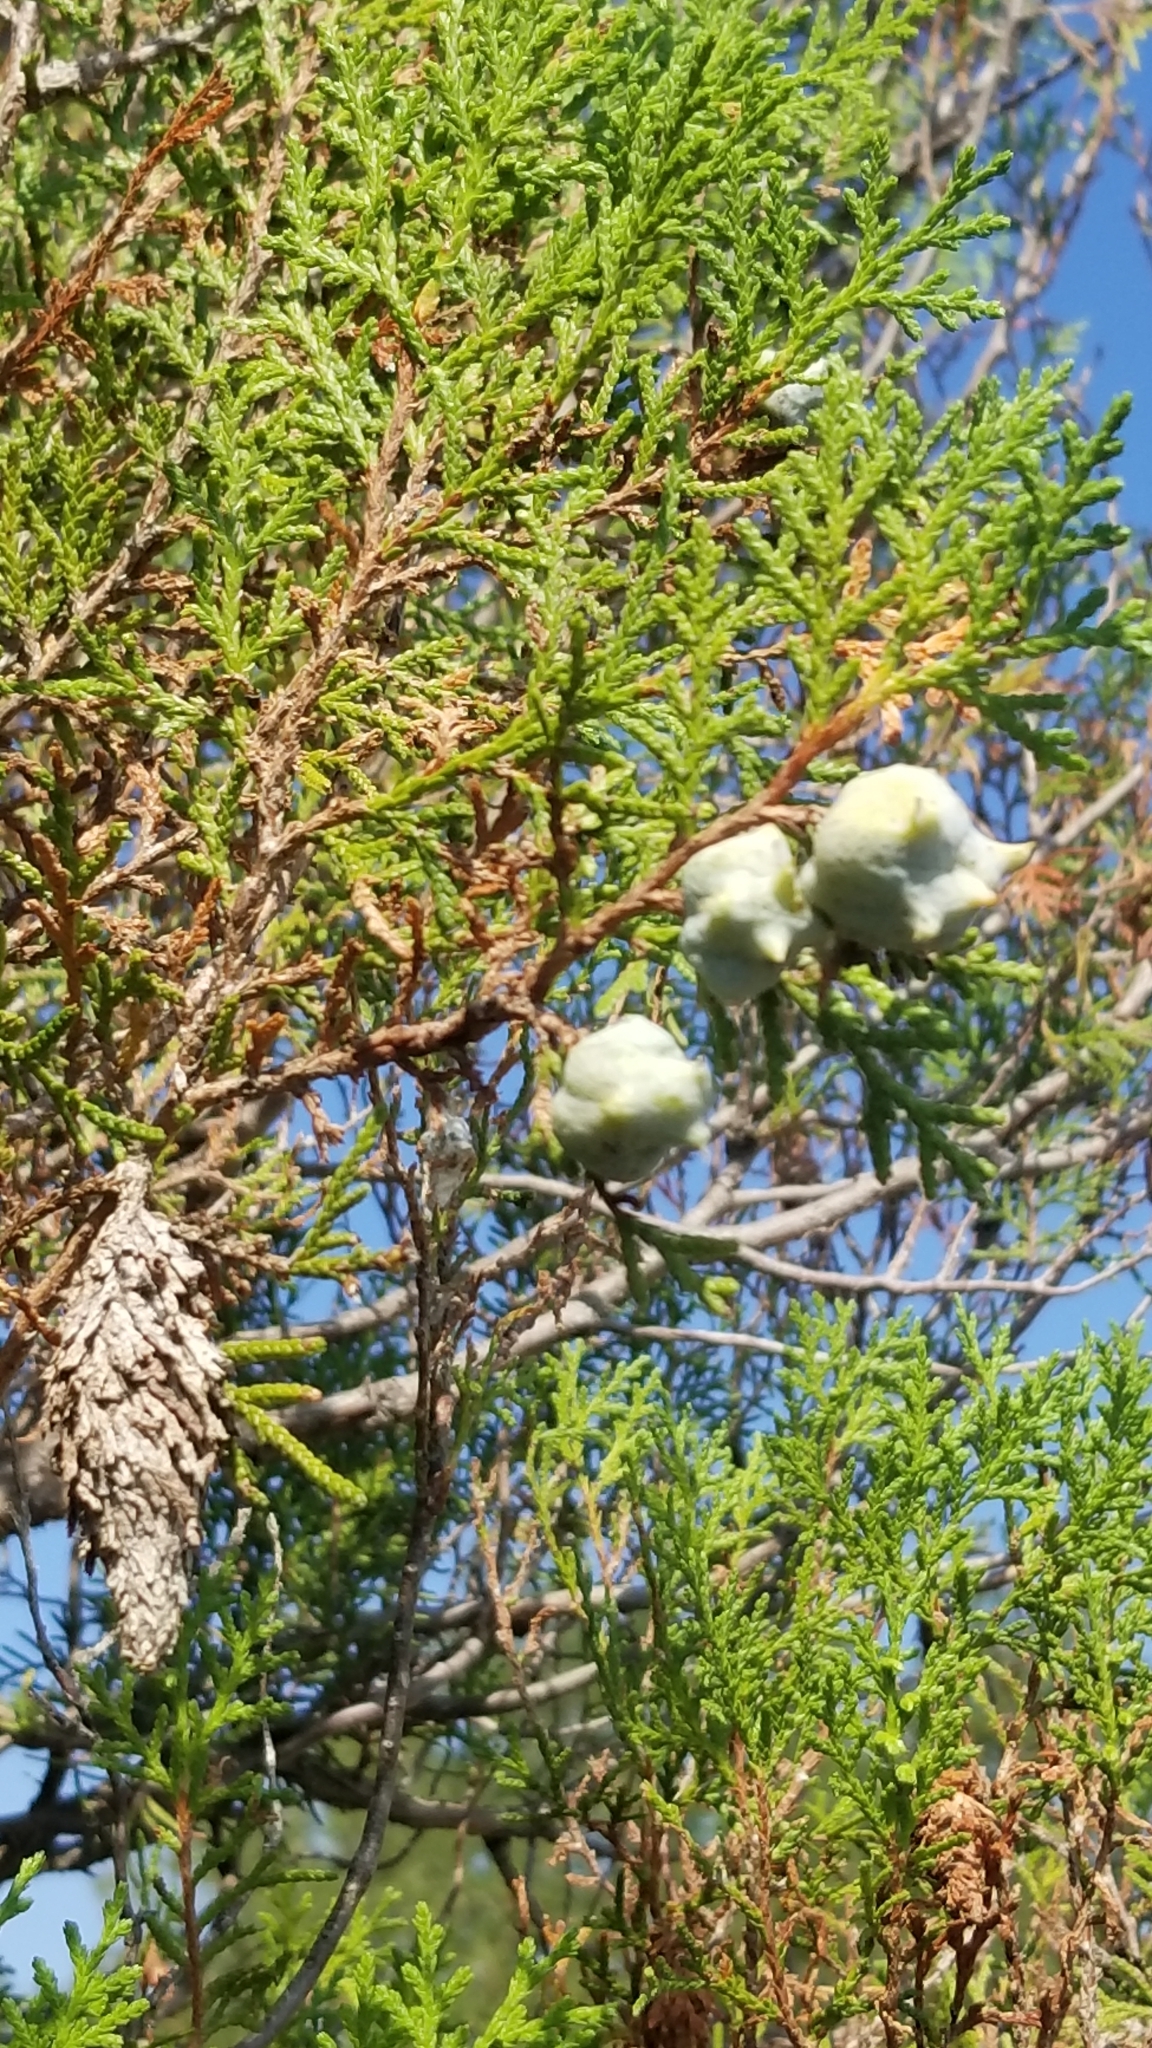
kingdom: Plantae
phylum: Tracheophyta
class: Pinopsida
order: Pinales
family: Cupressaceae
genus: Juniperus
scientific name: Juniperus virginiana
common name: Red juniper
